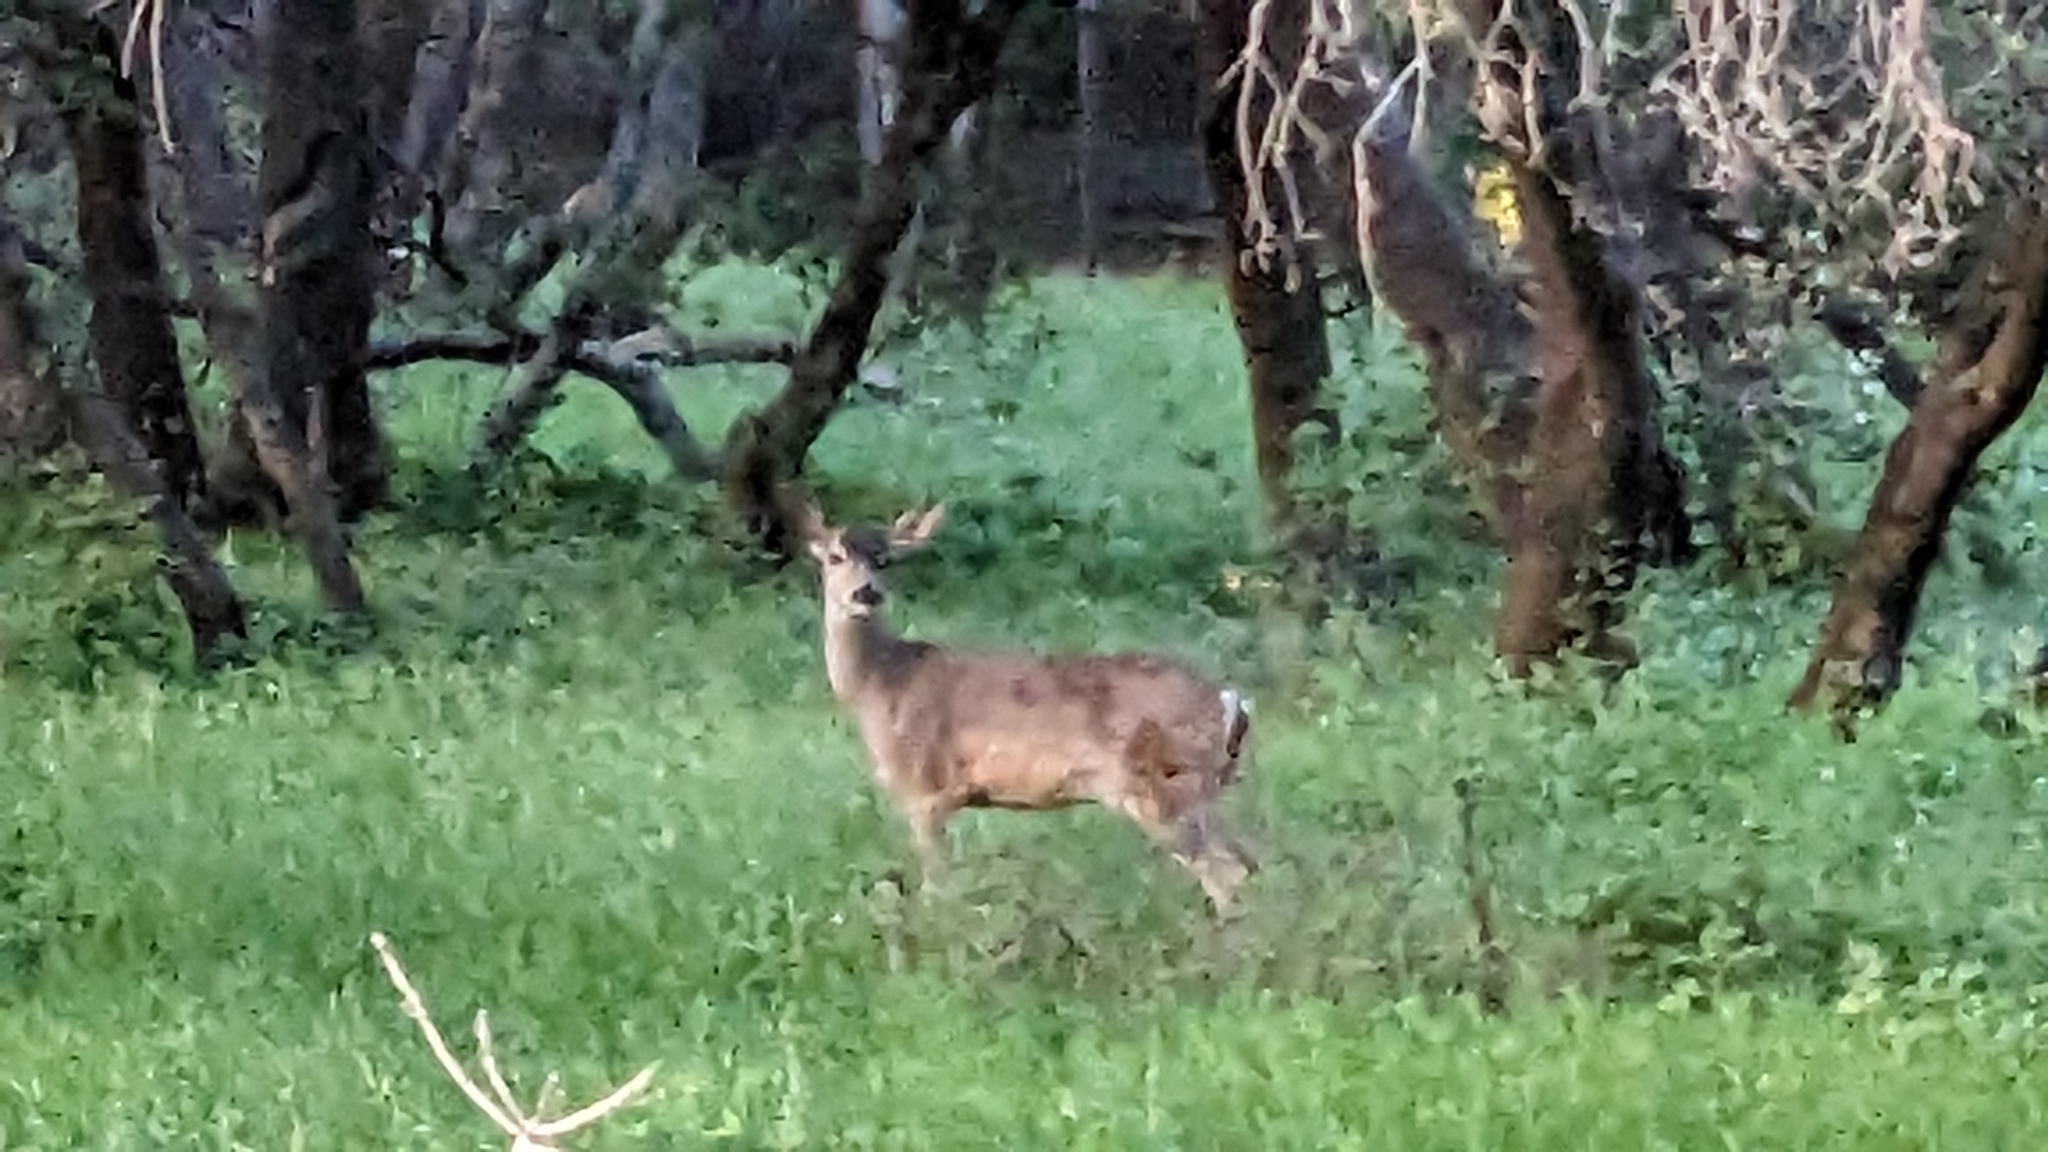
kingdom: Animalia
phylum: Chordata
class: Mammalia
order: Artiodactyla
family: Cervidae
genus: Odocoileus
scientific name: Odocoileus hemionus
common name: Mule deer
